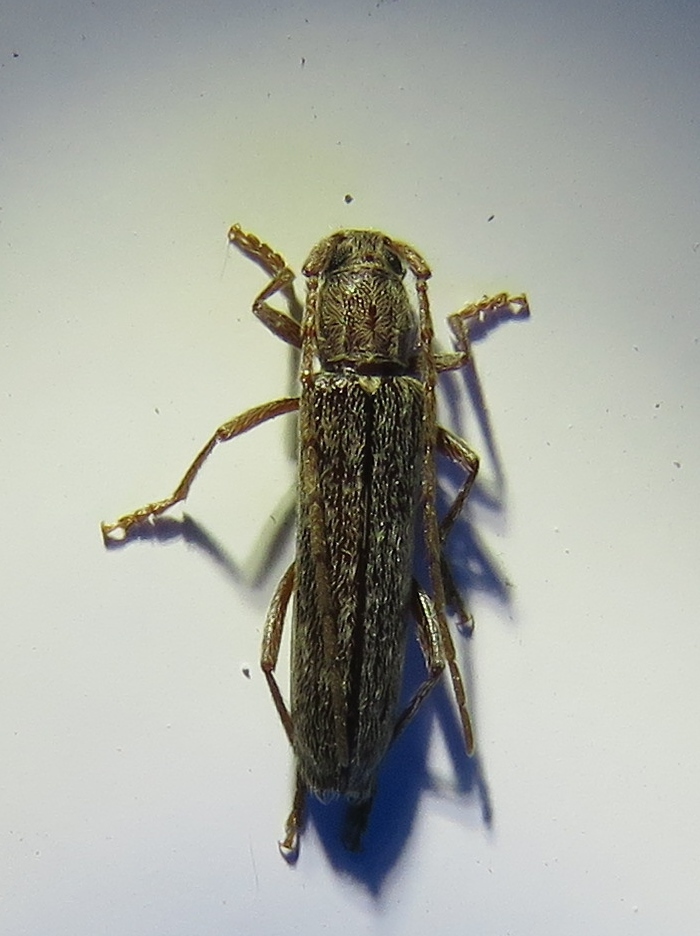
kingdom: Animalia
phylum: Arthropoda
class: Insecta
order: Coleoptera
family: Cerambycidae
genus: Anelaphus
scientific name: Anelaphus villosus
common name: Twig pruner
